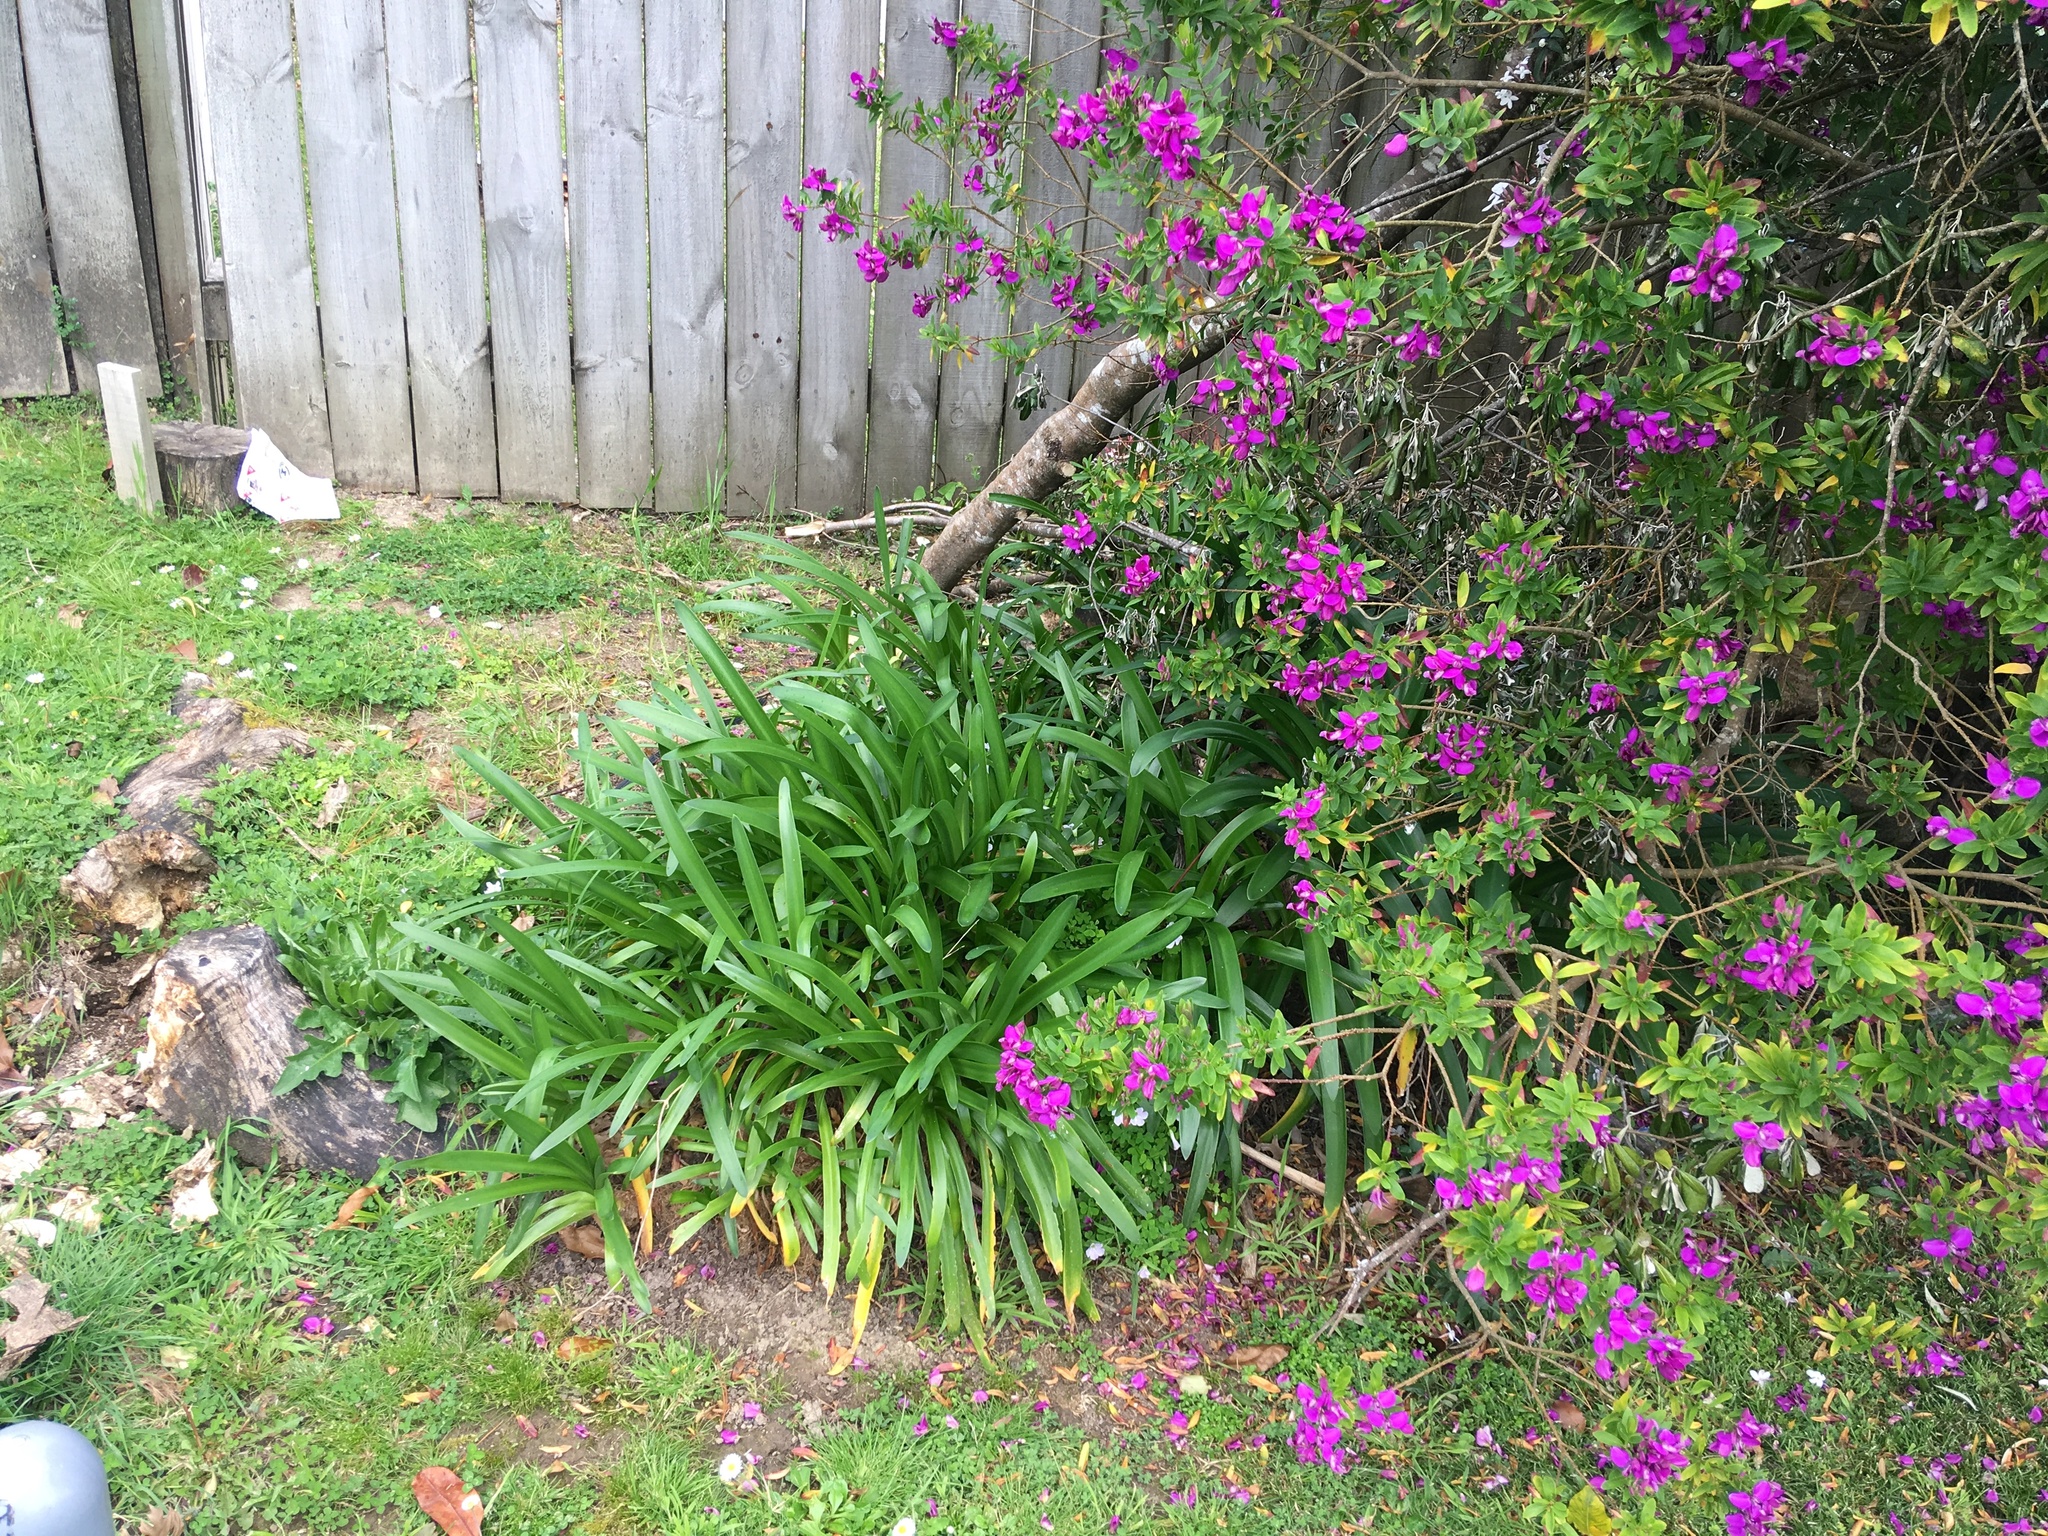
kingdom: Plantae
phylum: Tracheophyta
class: Liliopsida
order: Asparagales
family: Amaryllidaceae
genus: Agapanthus
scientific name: Agapanthus praecox
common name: African-lily
